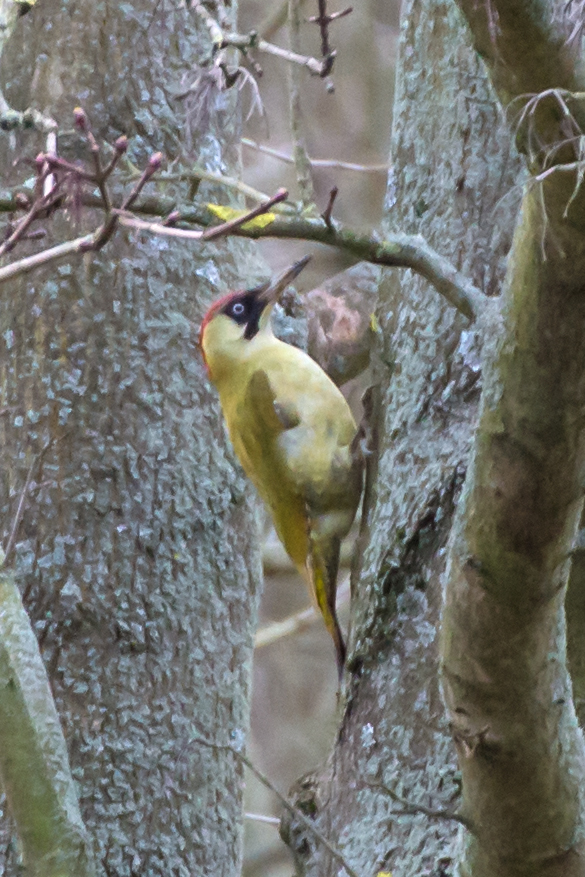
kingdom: Animalia
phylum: Chordata
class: Aves
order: Piciformes
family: Picidae
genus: Picus
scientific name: Picus viridis
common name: European green woodpecker
